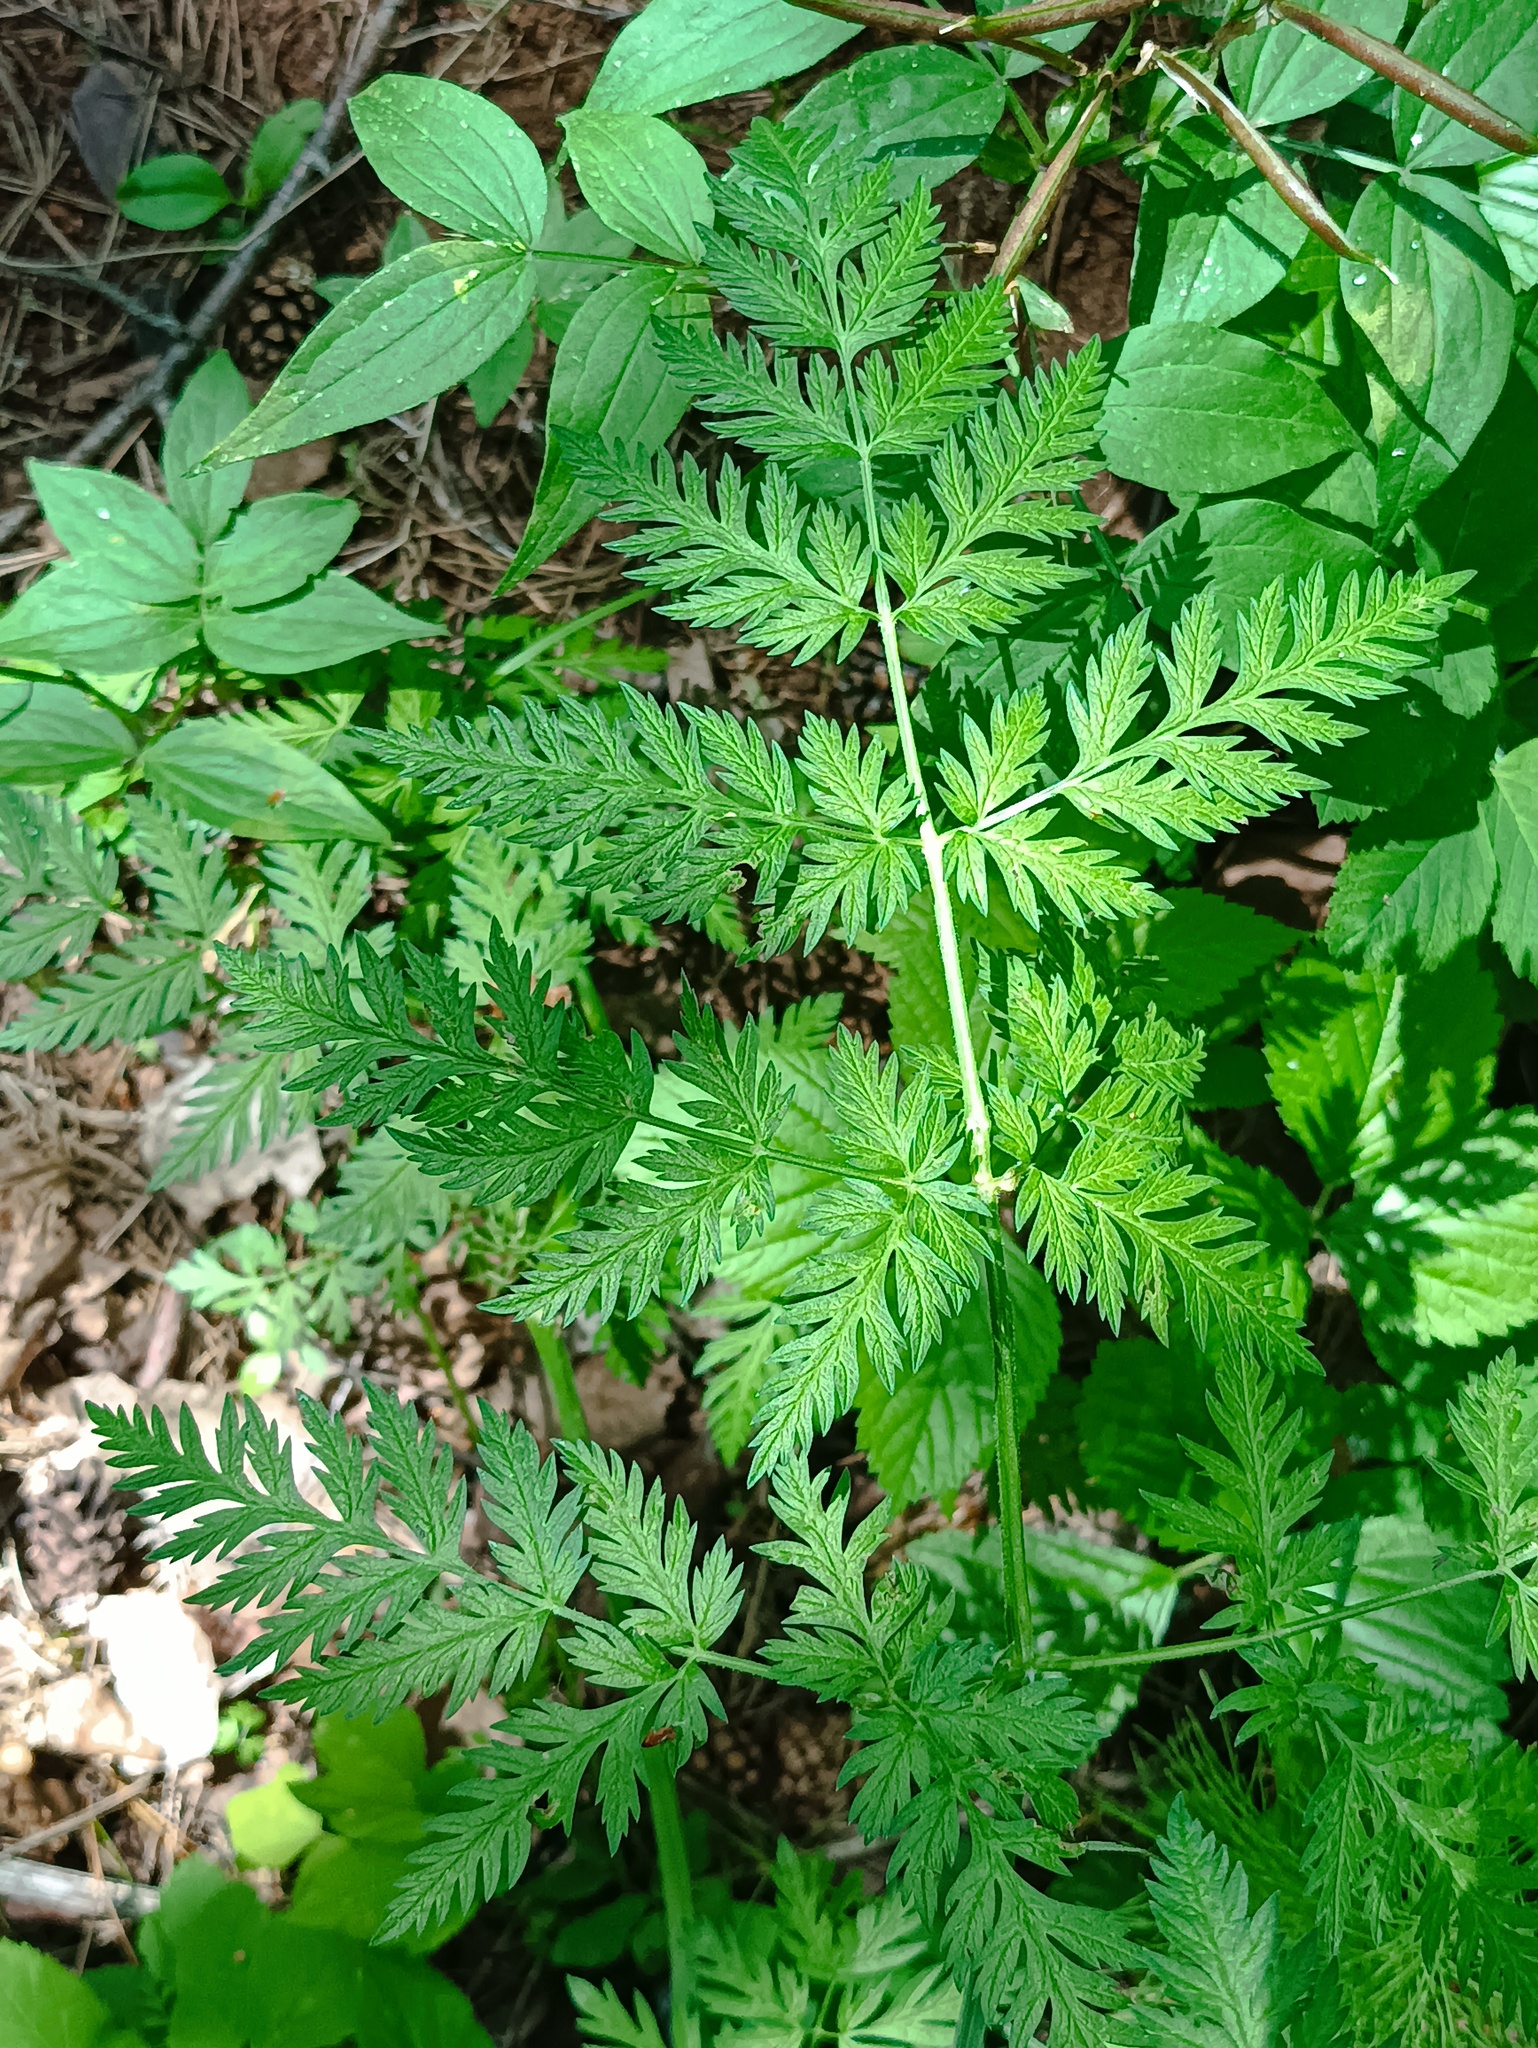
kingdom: Plantae
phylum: Tracheophyta
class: Magnoliopsida
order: Apiales
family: Apiaceae
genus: Anthriscus
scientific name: Anthriscus sylvestris
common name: Cow parsley
